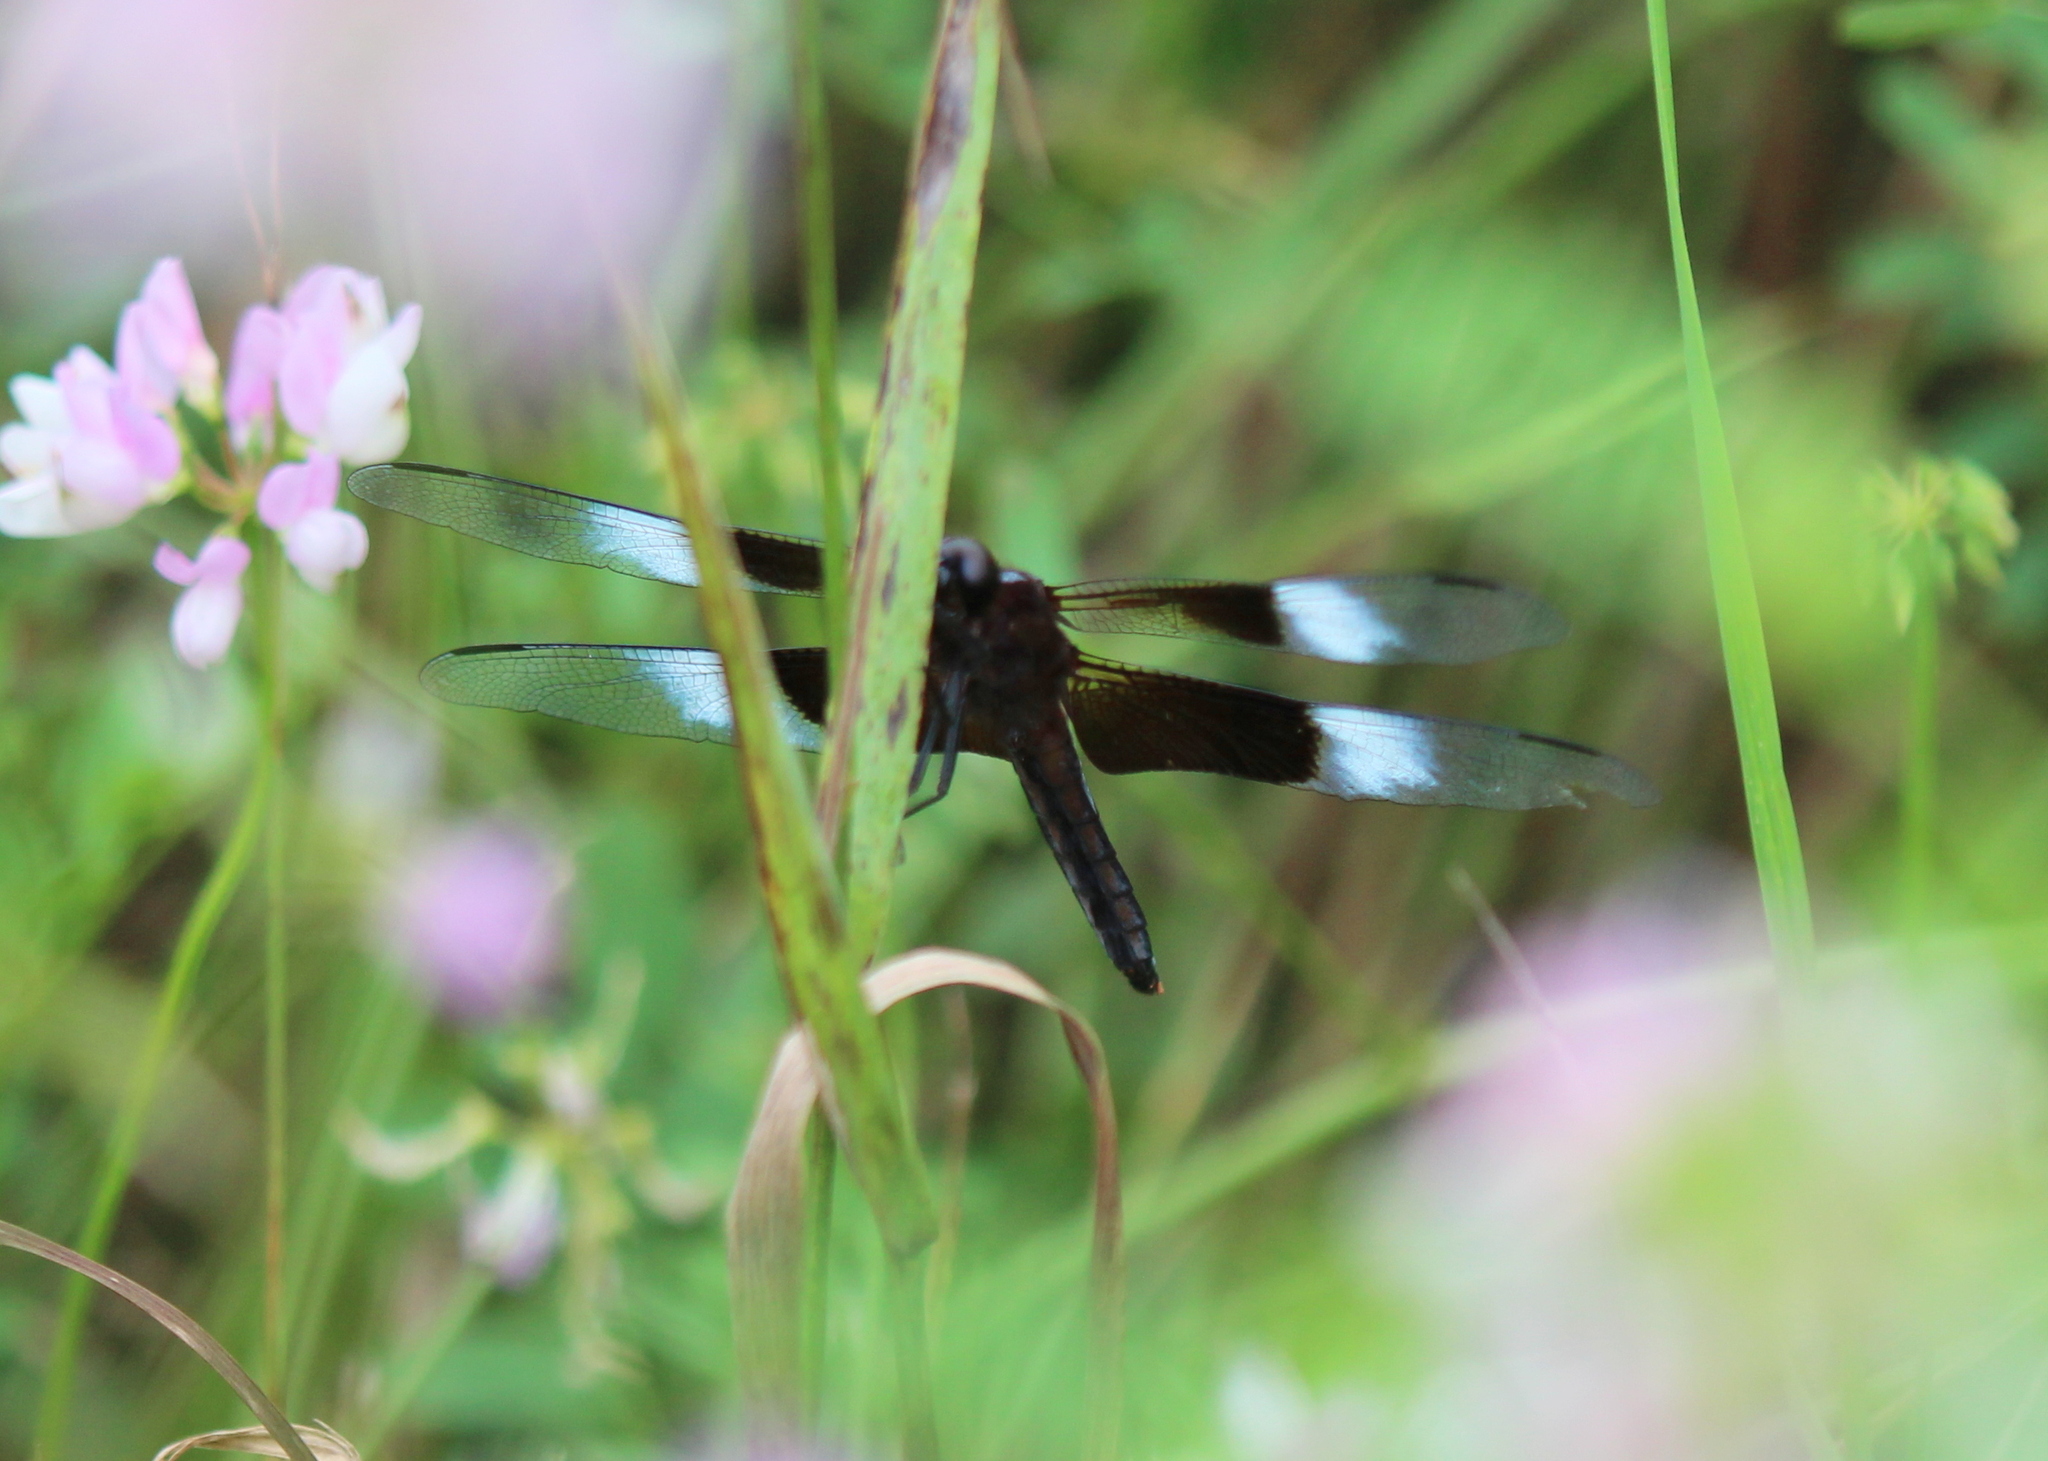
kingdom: Animalia
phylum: Arthropoda
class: Insecta
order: Odonata
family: Libellulidae
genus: Libellula
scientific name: Libellula luctuosa
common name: Widow skimmer
